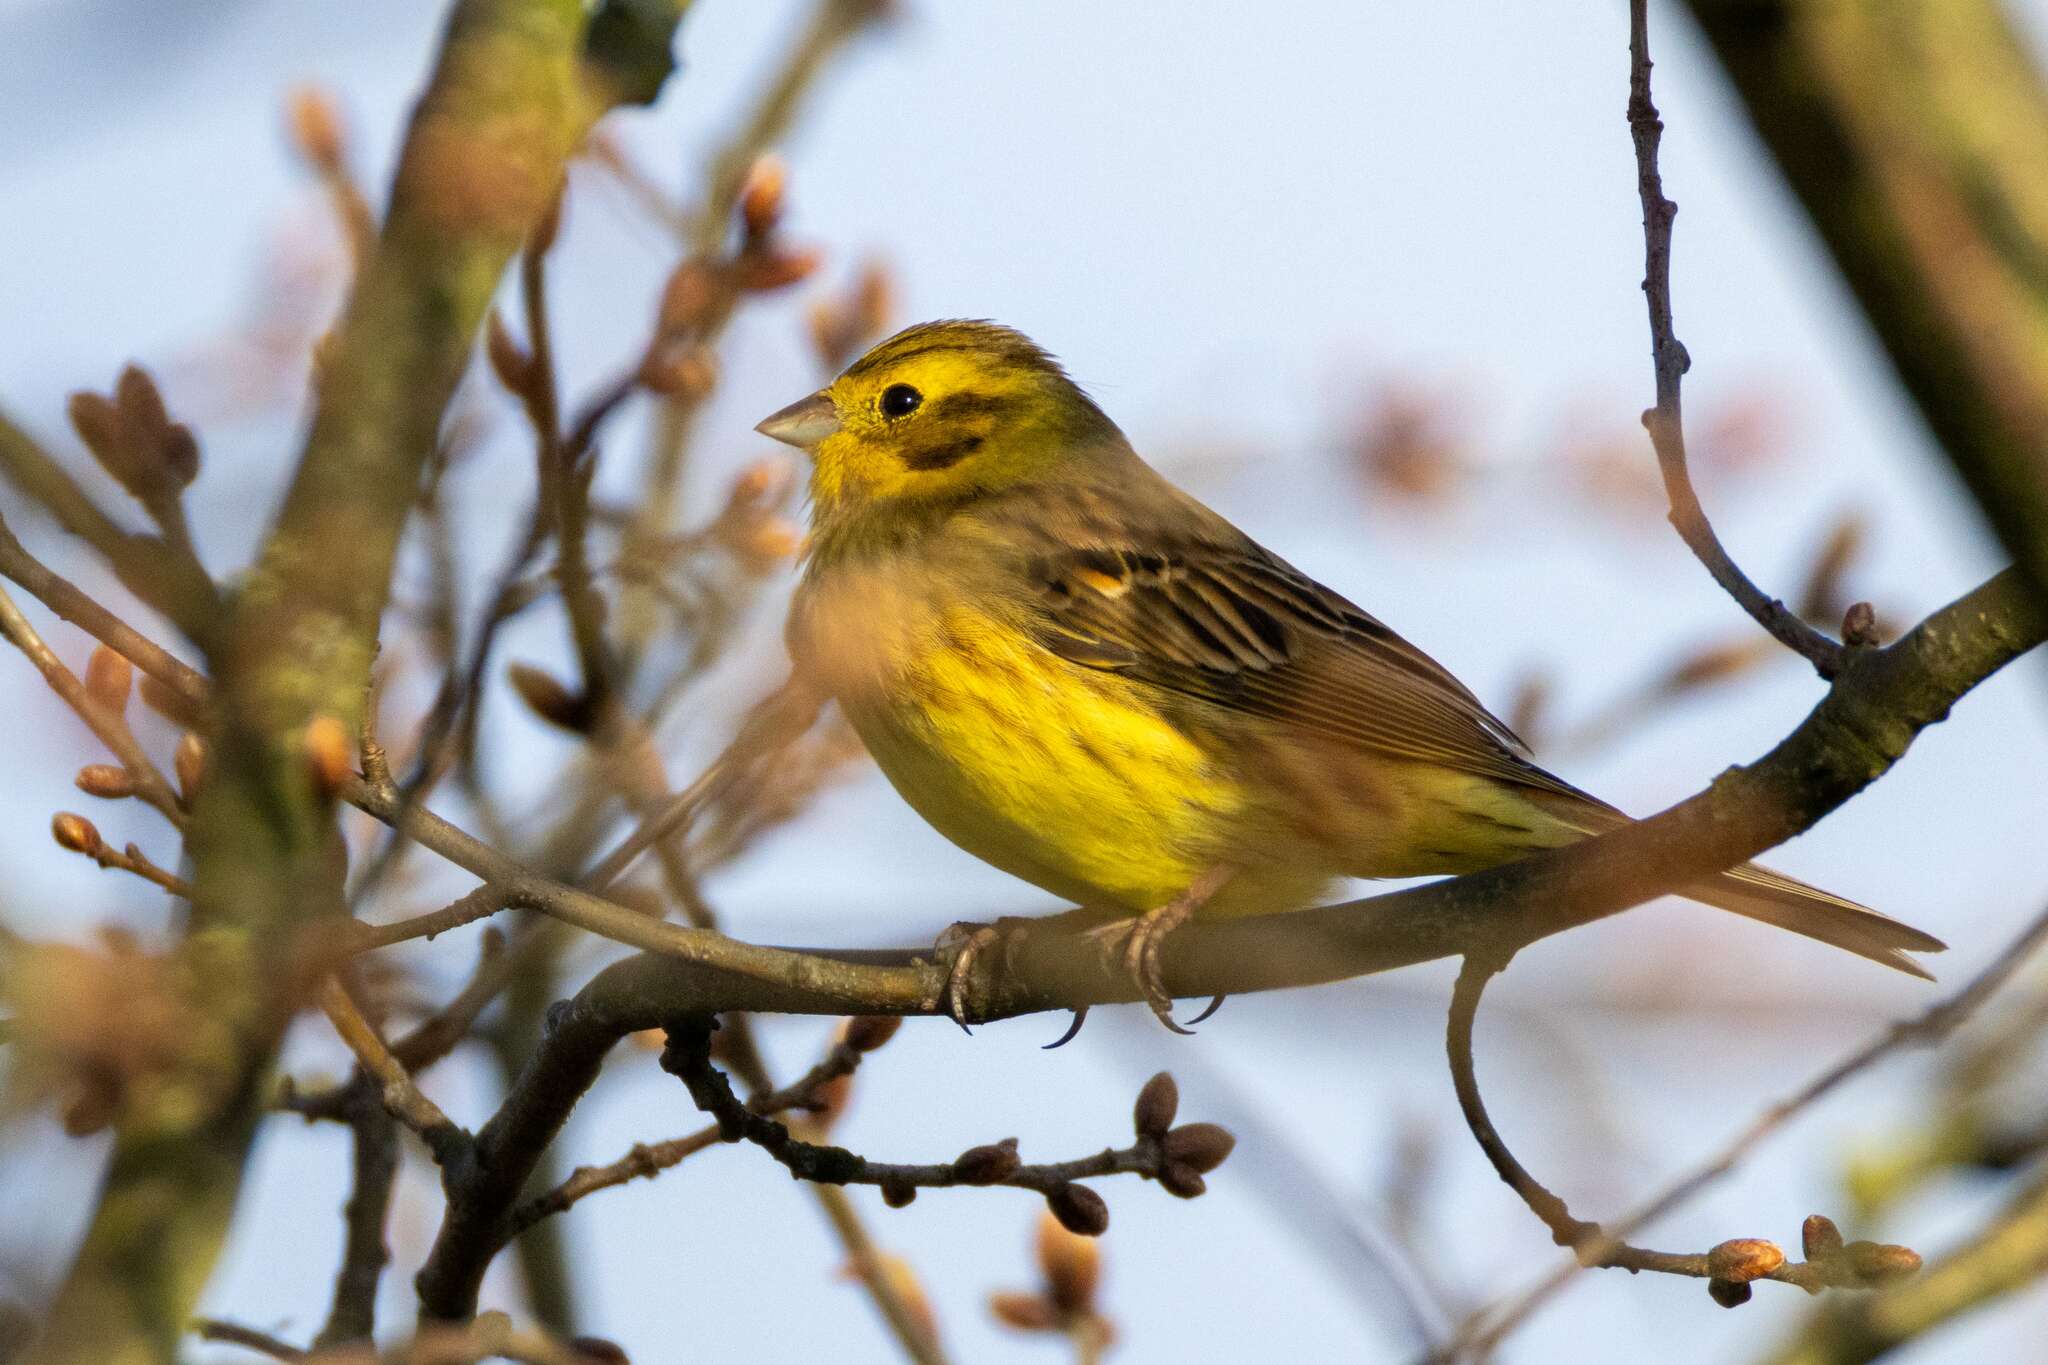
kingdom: Animalia
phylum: Chordata
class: Aves
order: Passeriformes
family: Emberizidae
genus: Emberiza
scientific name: Emberiza citrinella
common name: Yellowhammer
